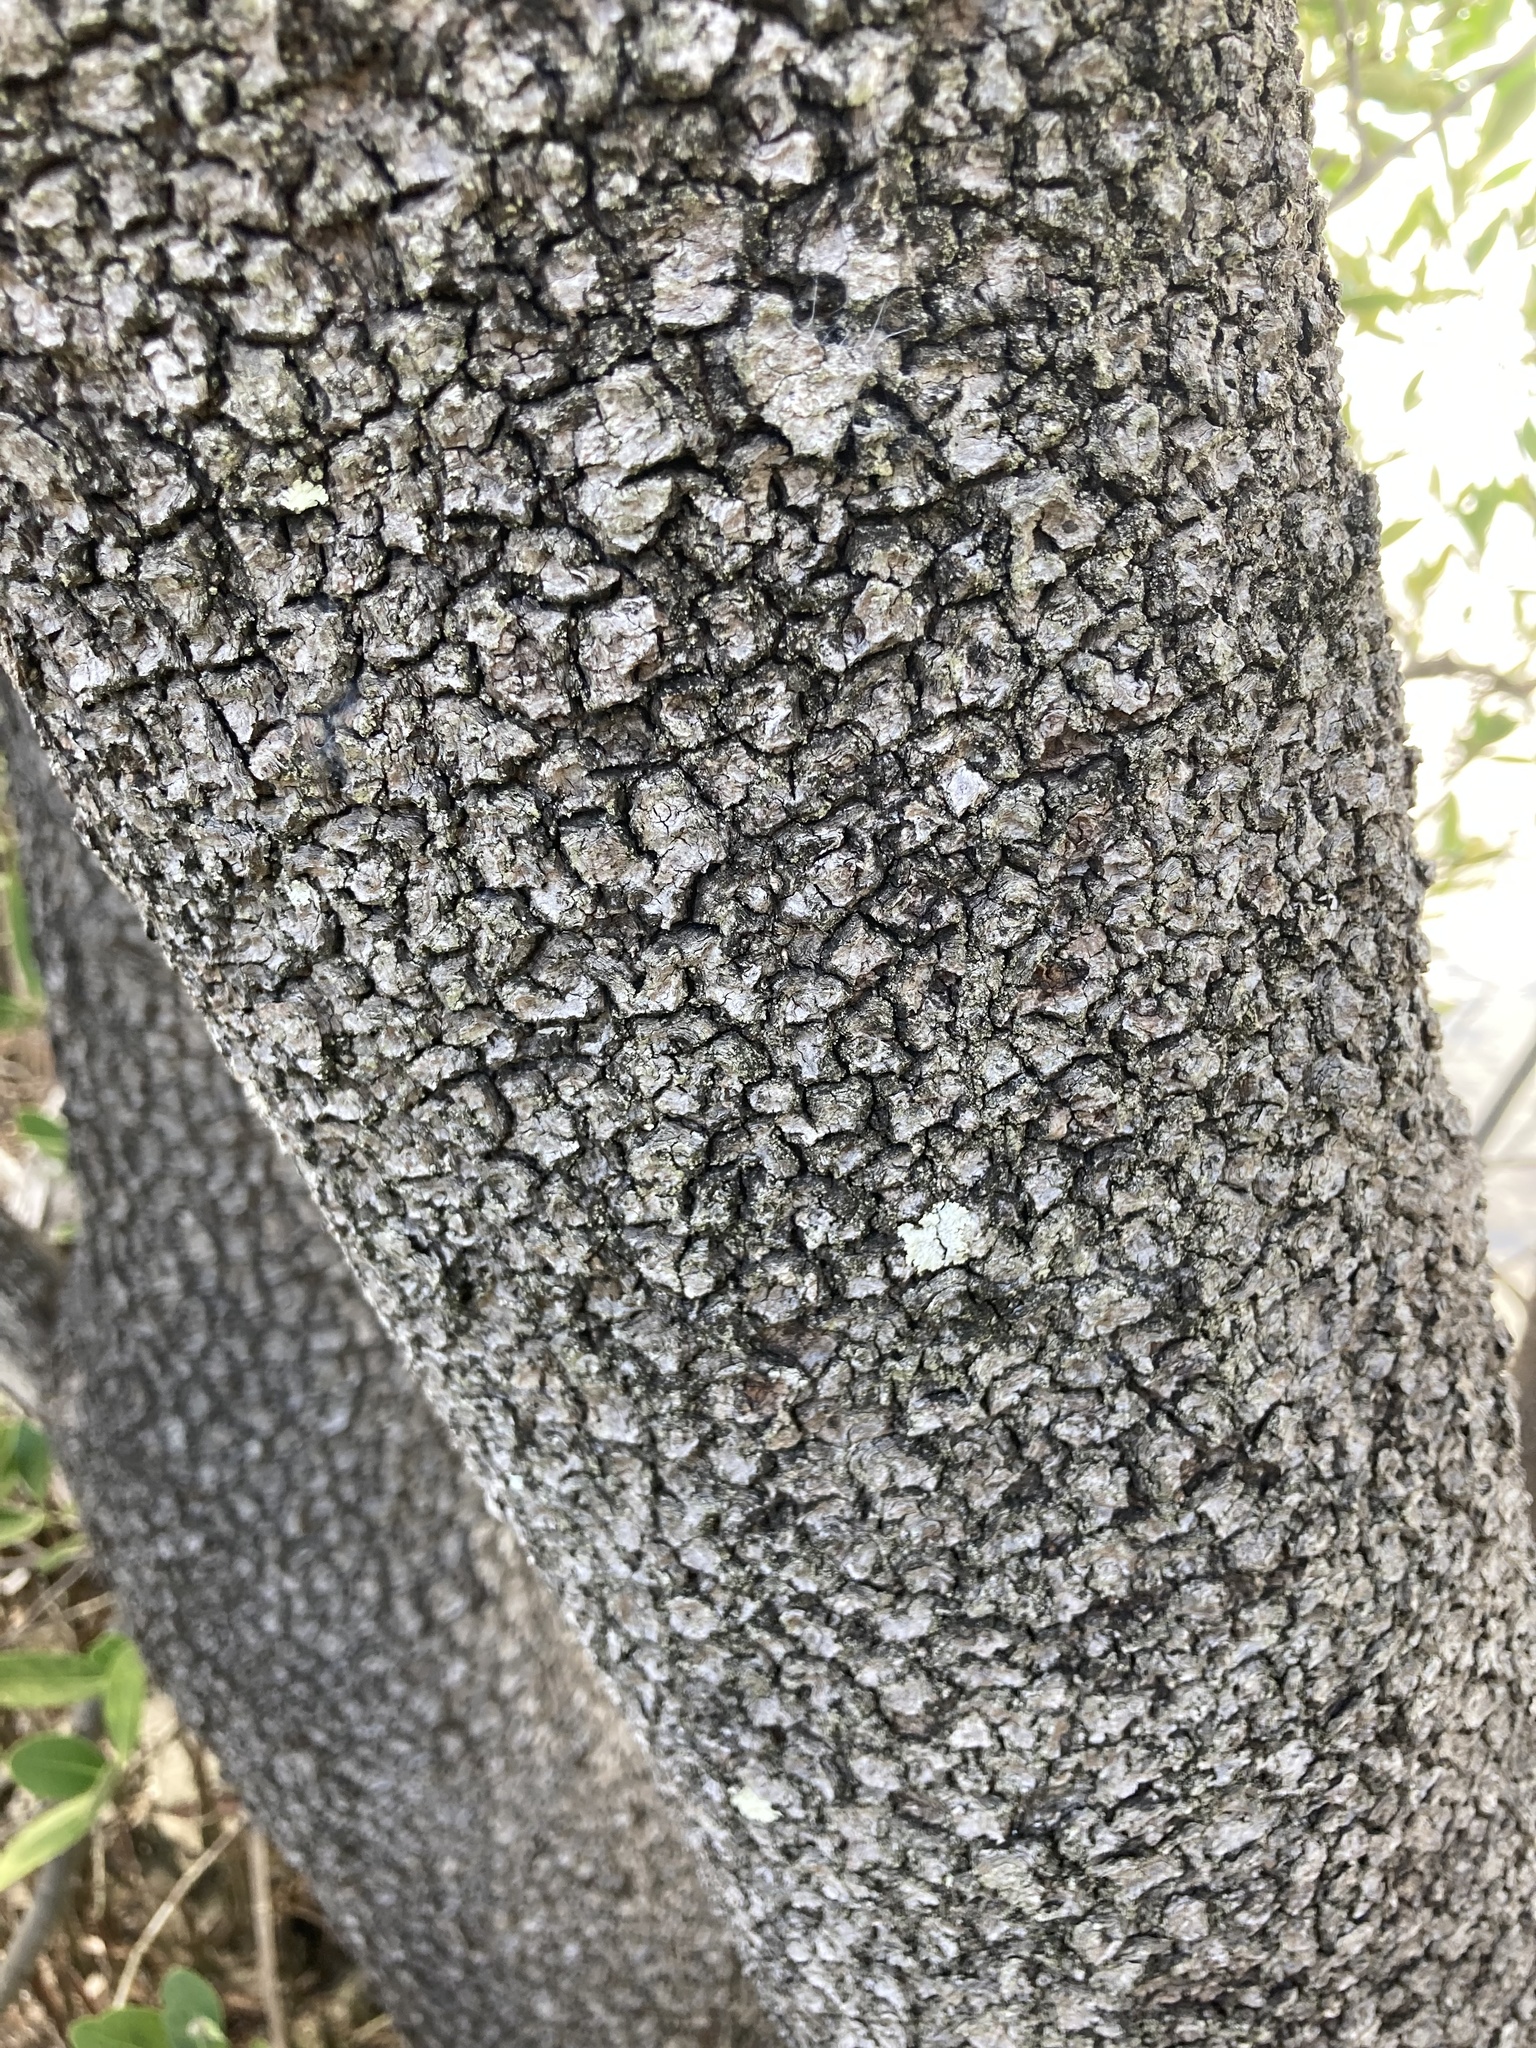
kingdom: Plantae
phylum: Tracheophyta
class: Magnoliopsida
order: Lamiales
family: Acanthaceae
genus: Avicennia
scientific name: Avicennia germinans
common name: Black mangrove
